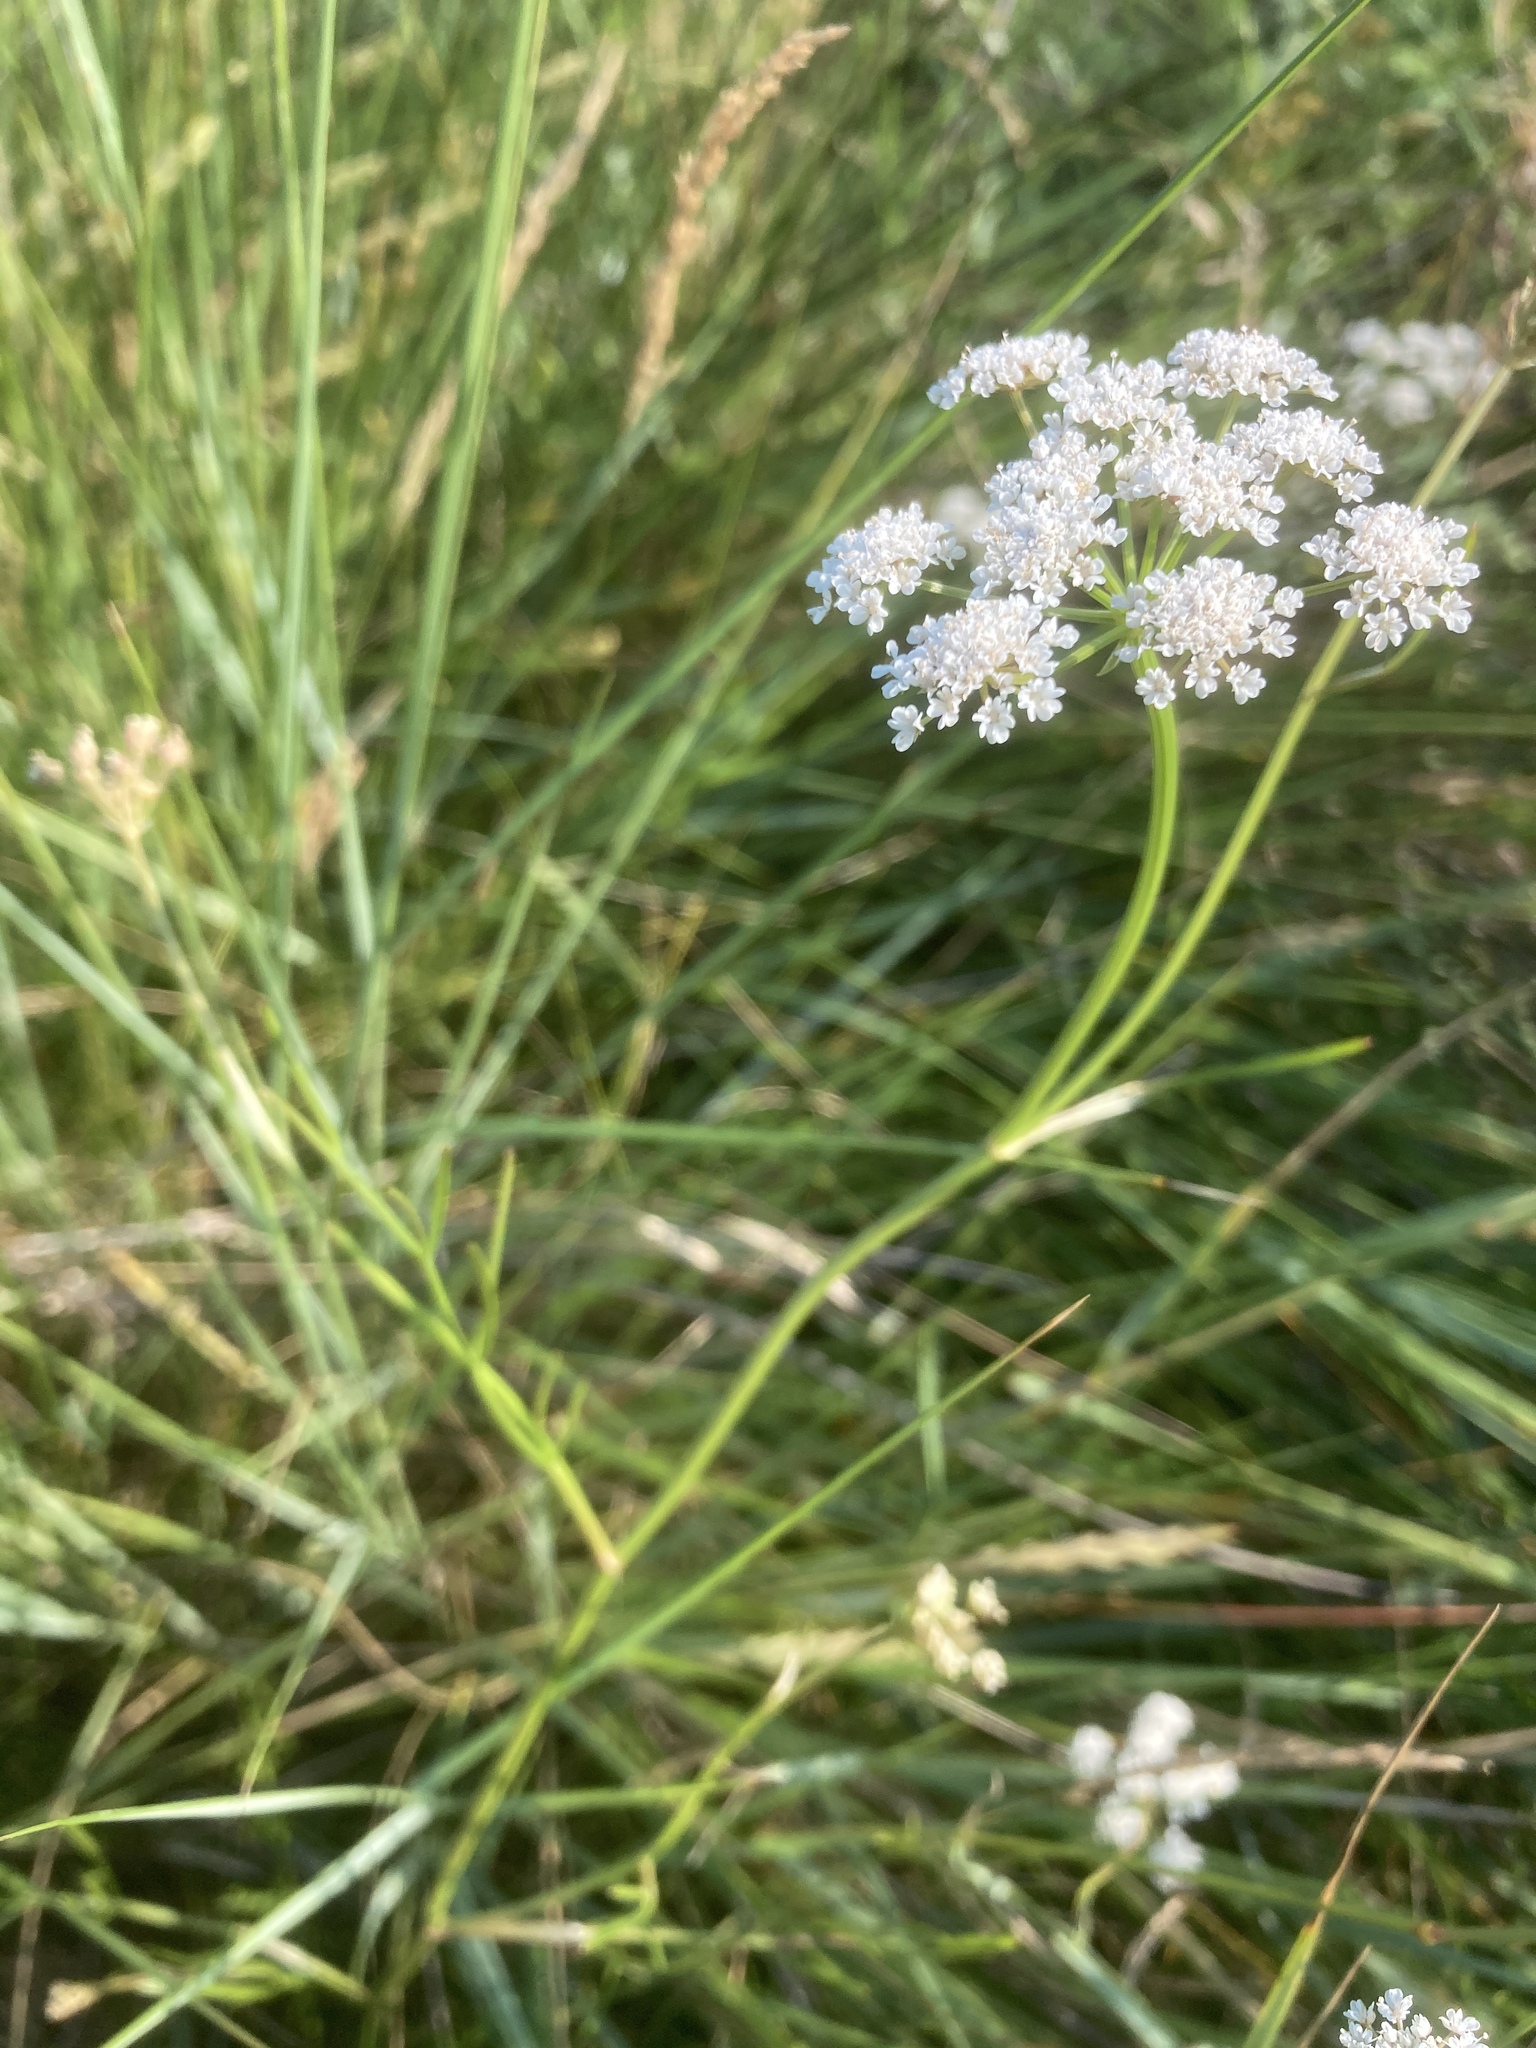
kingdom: Plantae
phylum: Tracheophyta
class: Magnoliopsida
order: Apiales
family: Apiaceae
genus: Oenanthe
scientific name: Oenanthe lachenalii
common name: Parsley water-dropwort
